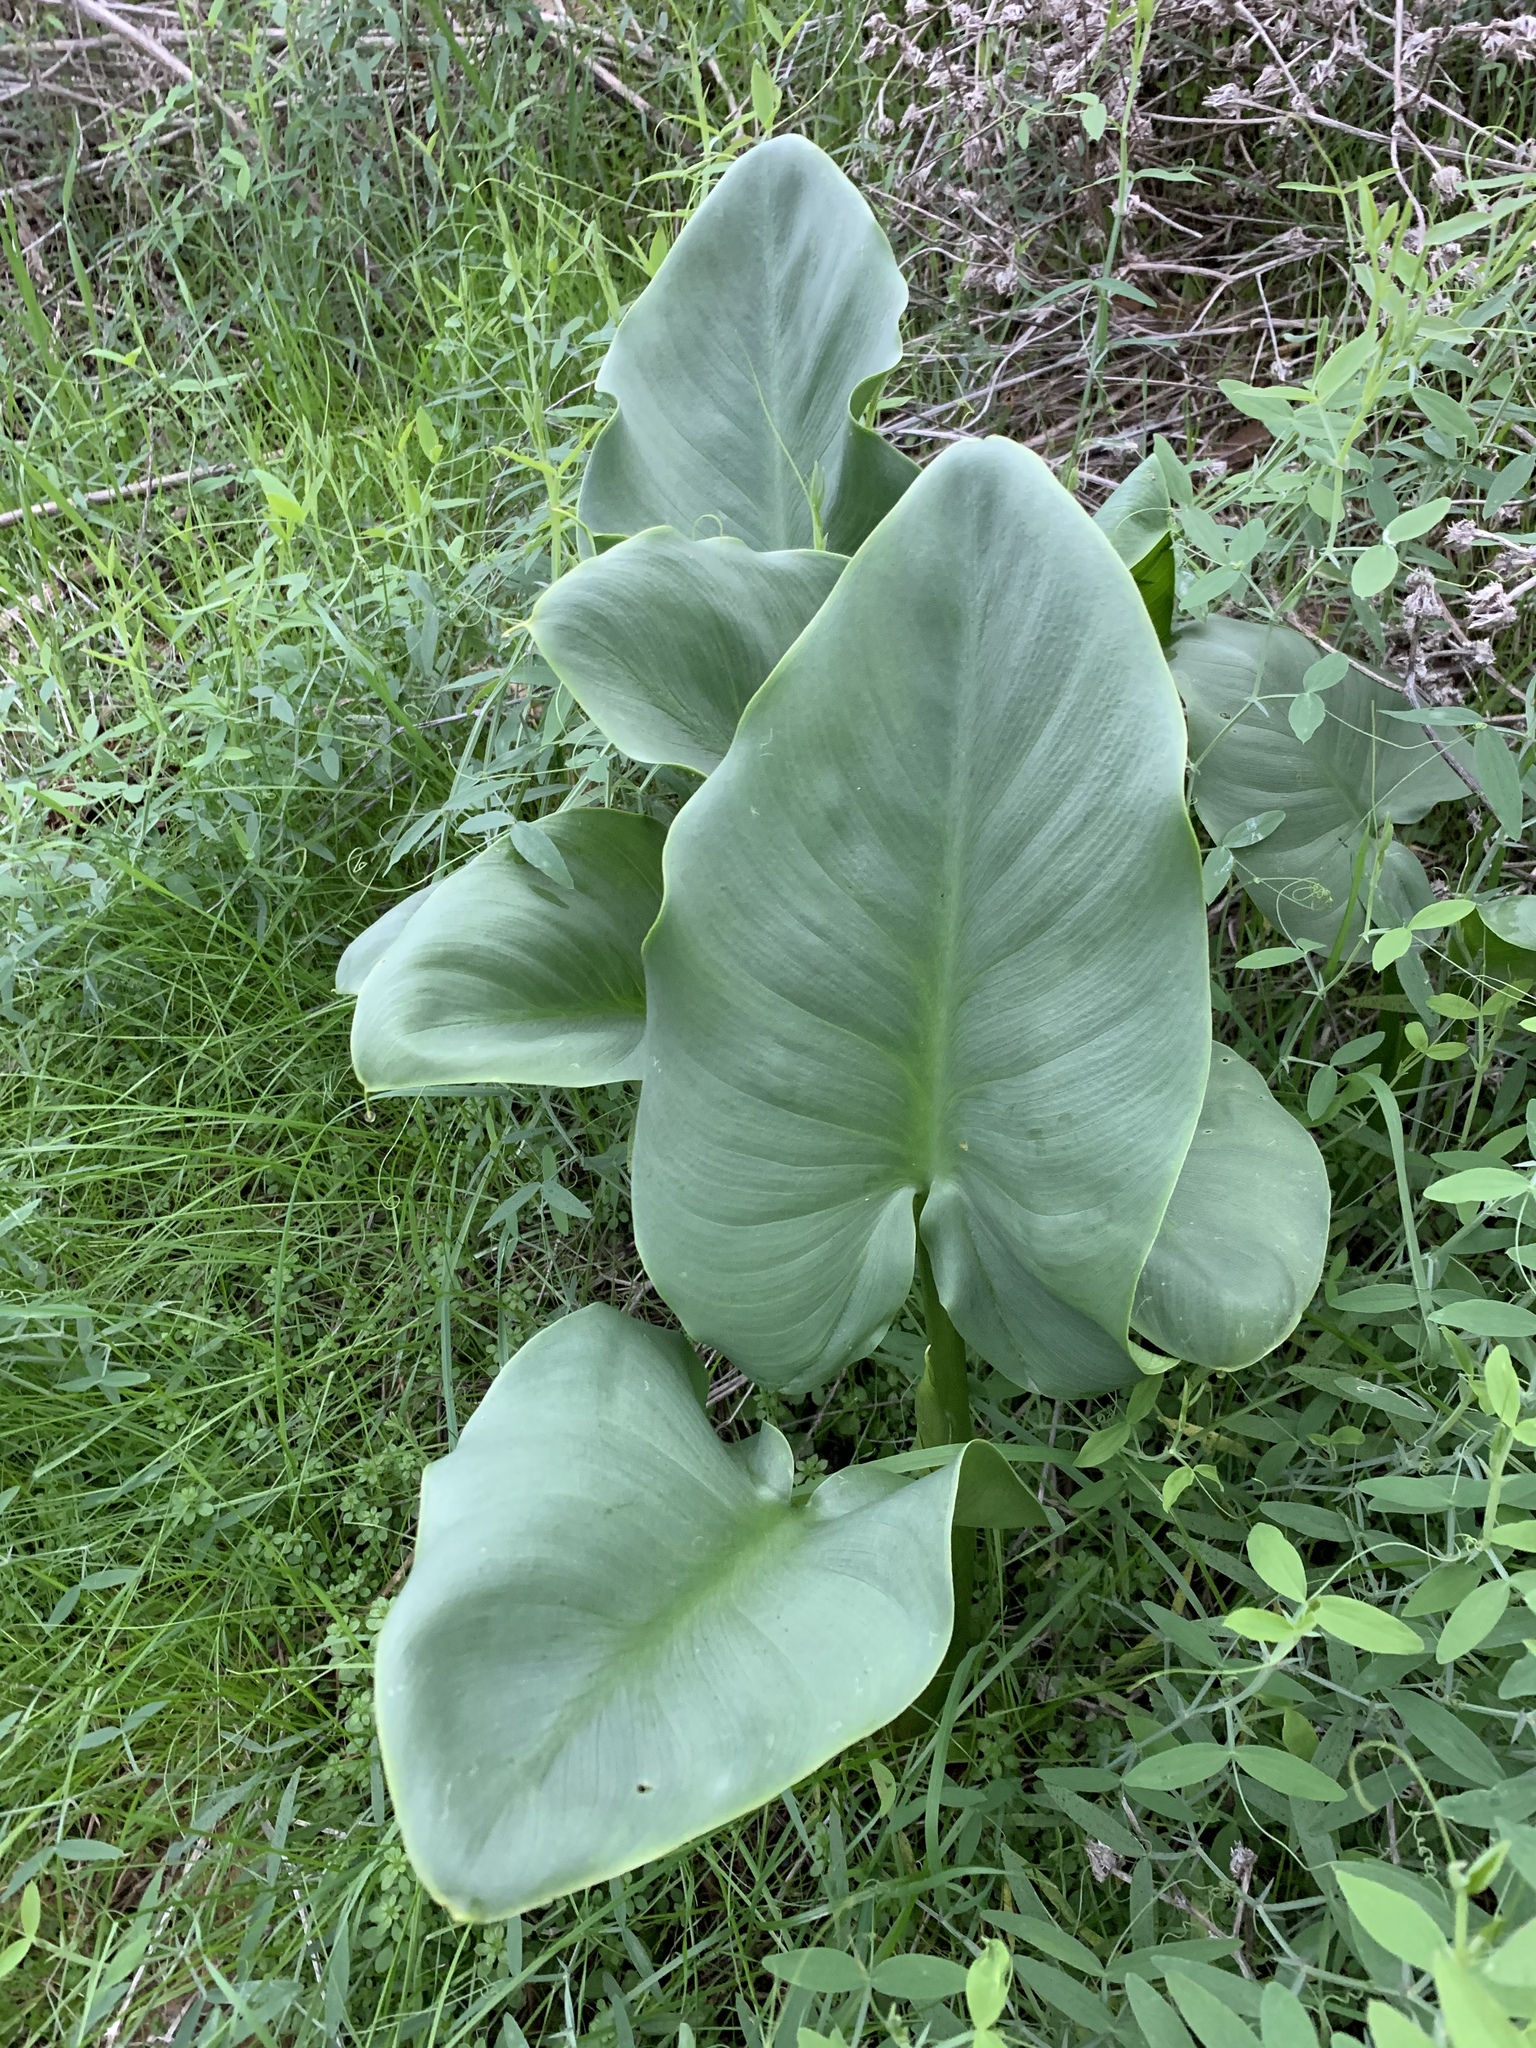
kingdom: Plantae
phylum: Tracheophyta
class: Liliopsida
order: Alismatales
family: Araceae
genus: Zantedeschia
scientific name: Zantedeschia aethiopica
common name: Altar-lily
